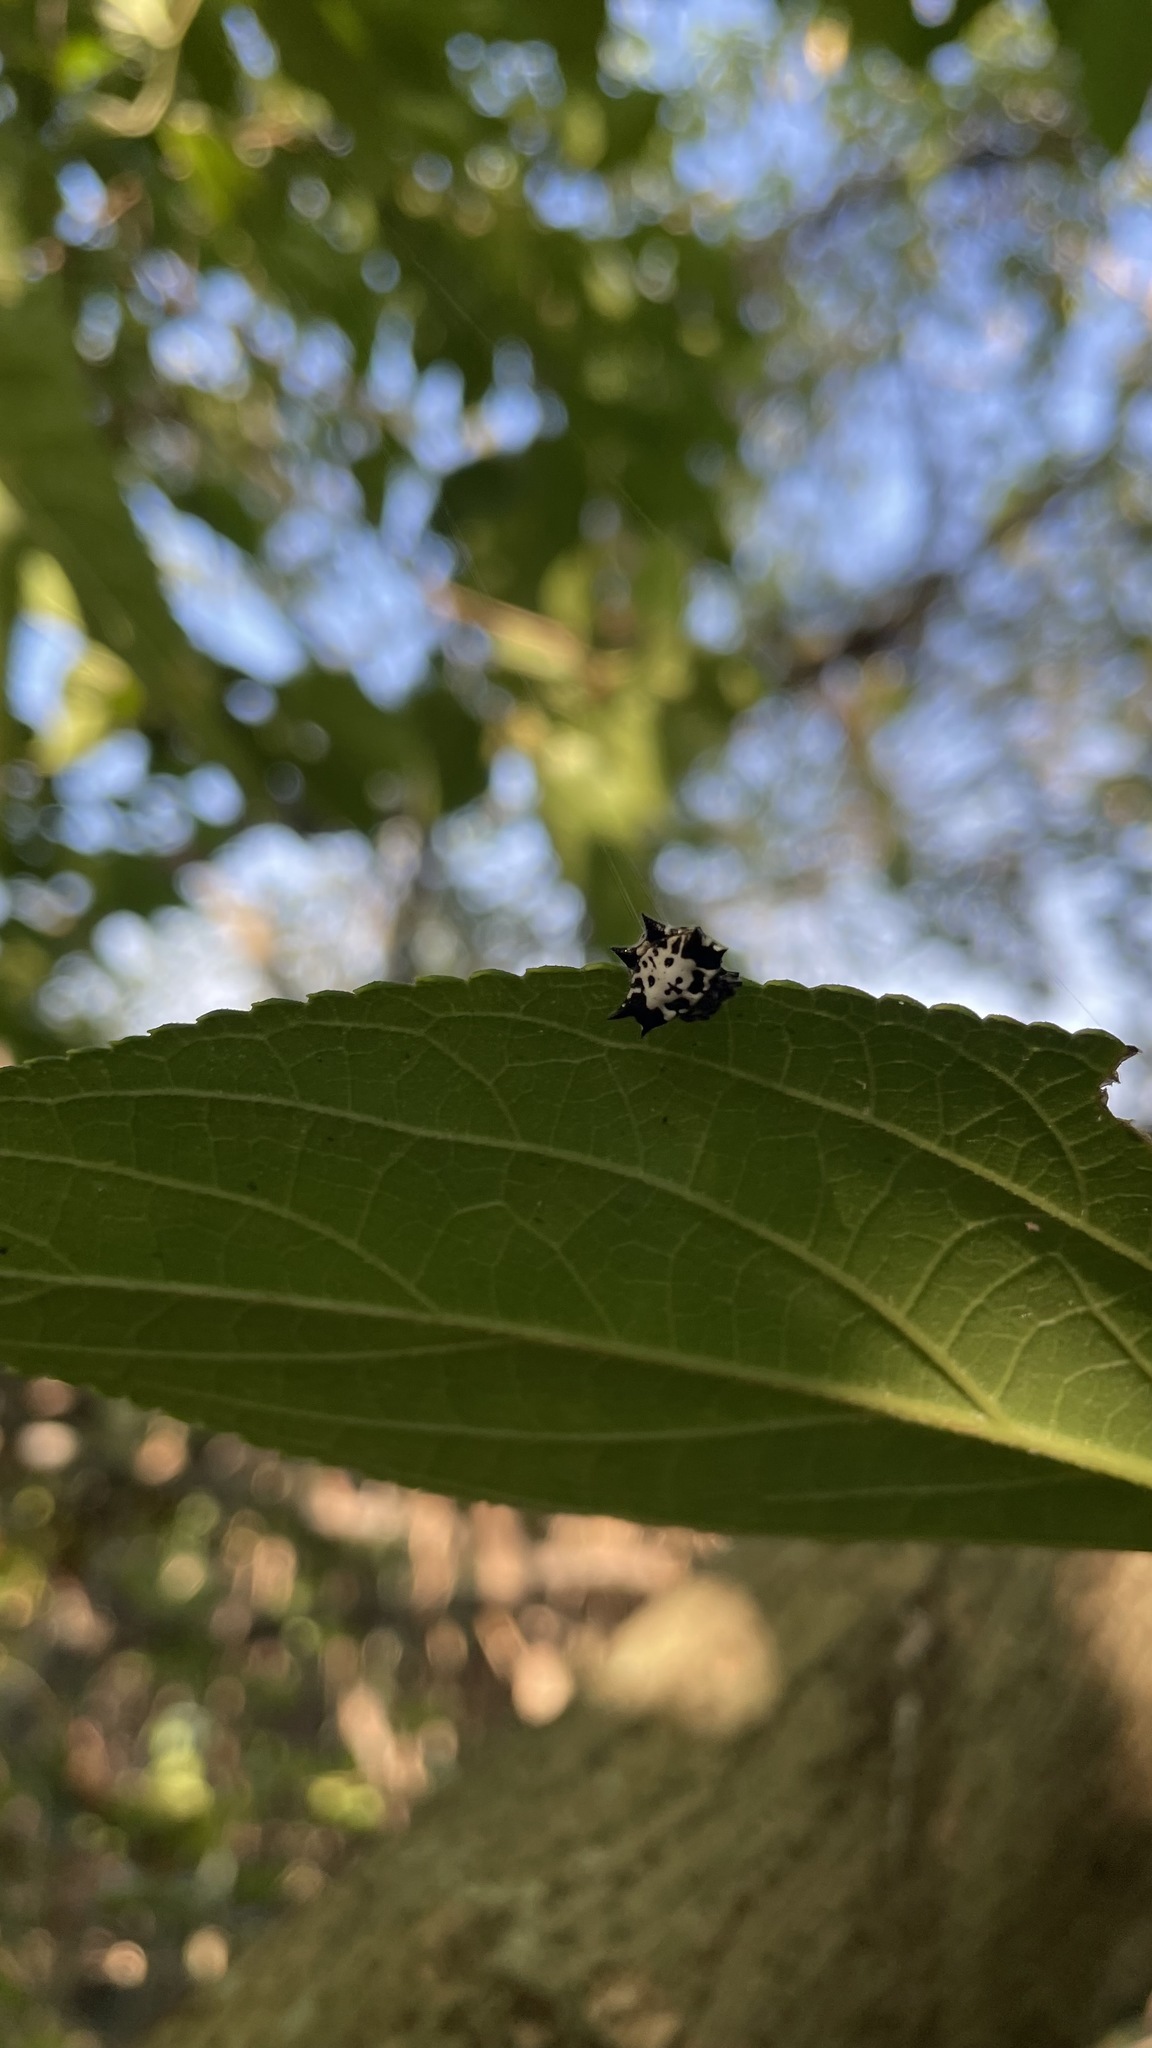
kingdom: Animalia
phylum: Arthropoda
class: Arachnida
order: Araneae
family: Araneidae
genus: Gasteracantha
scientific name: Gasteracantha kuhli
